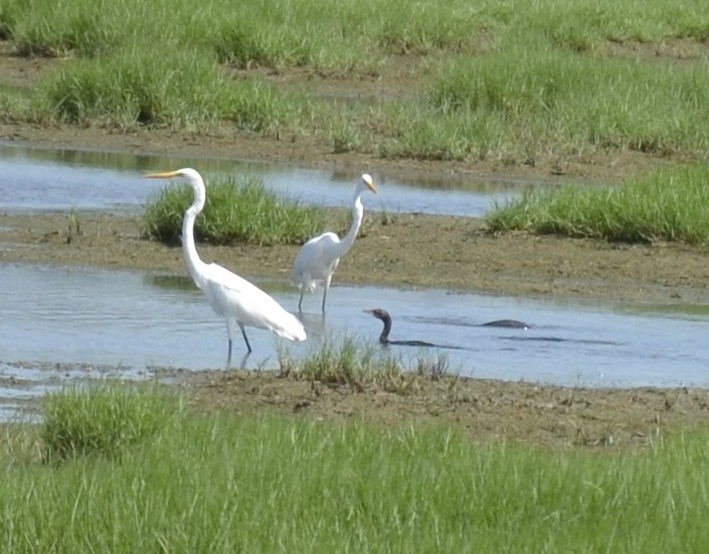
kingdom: Animalia
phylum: Chordata
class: Aves
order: Pelecaniformes
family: Ardeidae
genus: Ardea
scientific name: Ardea alba
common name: Great egret
